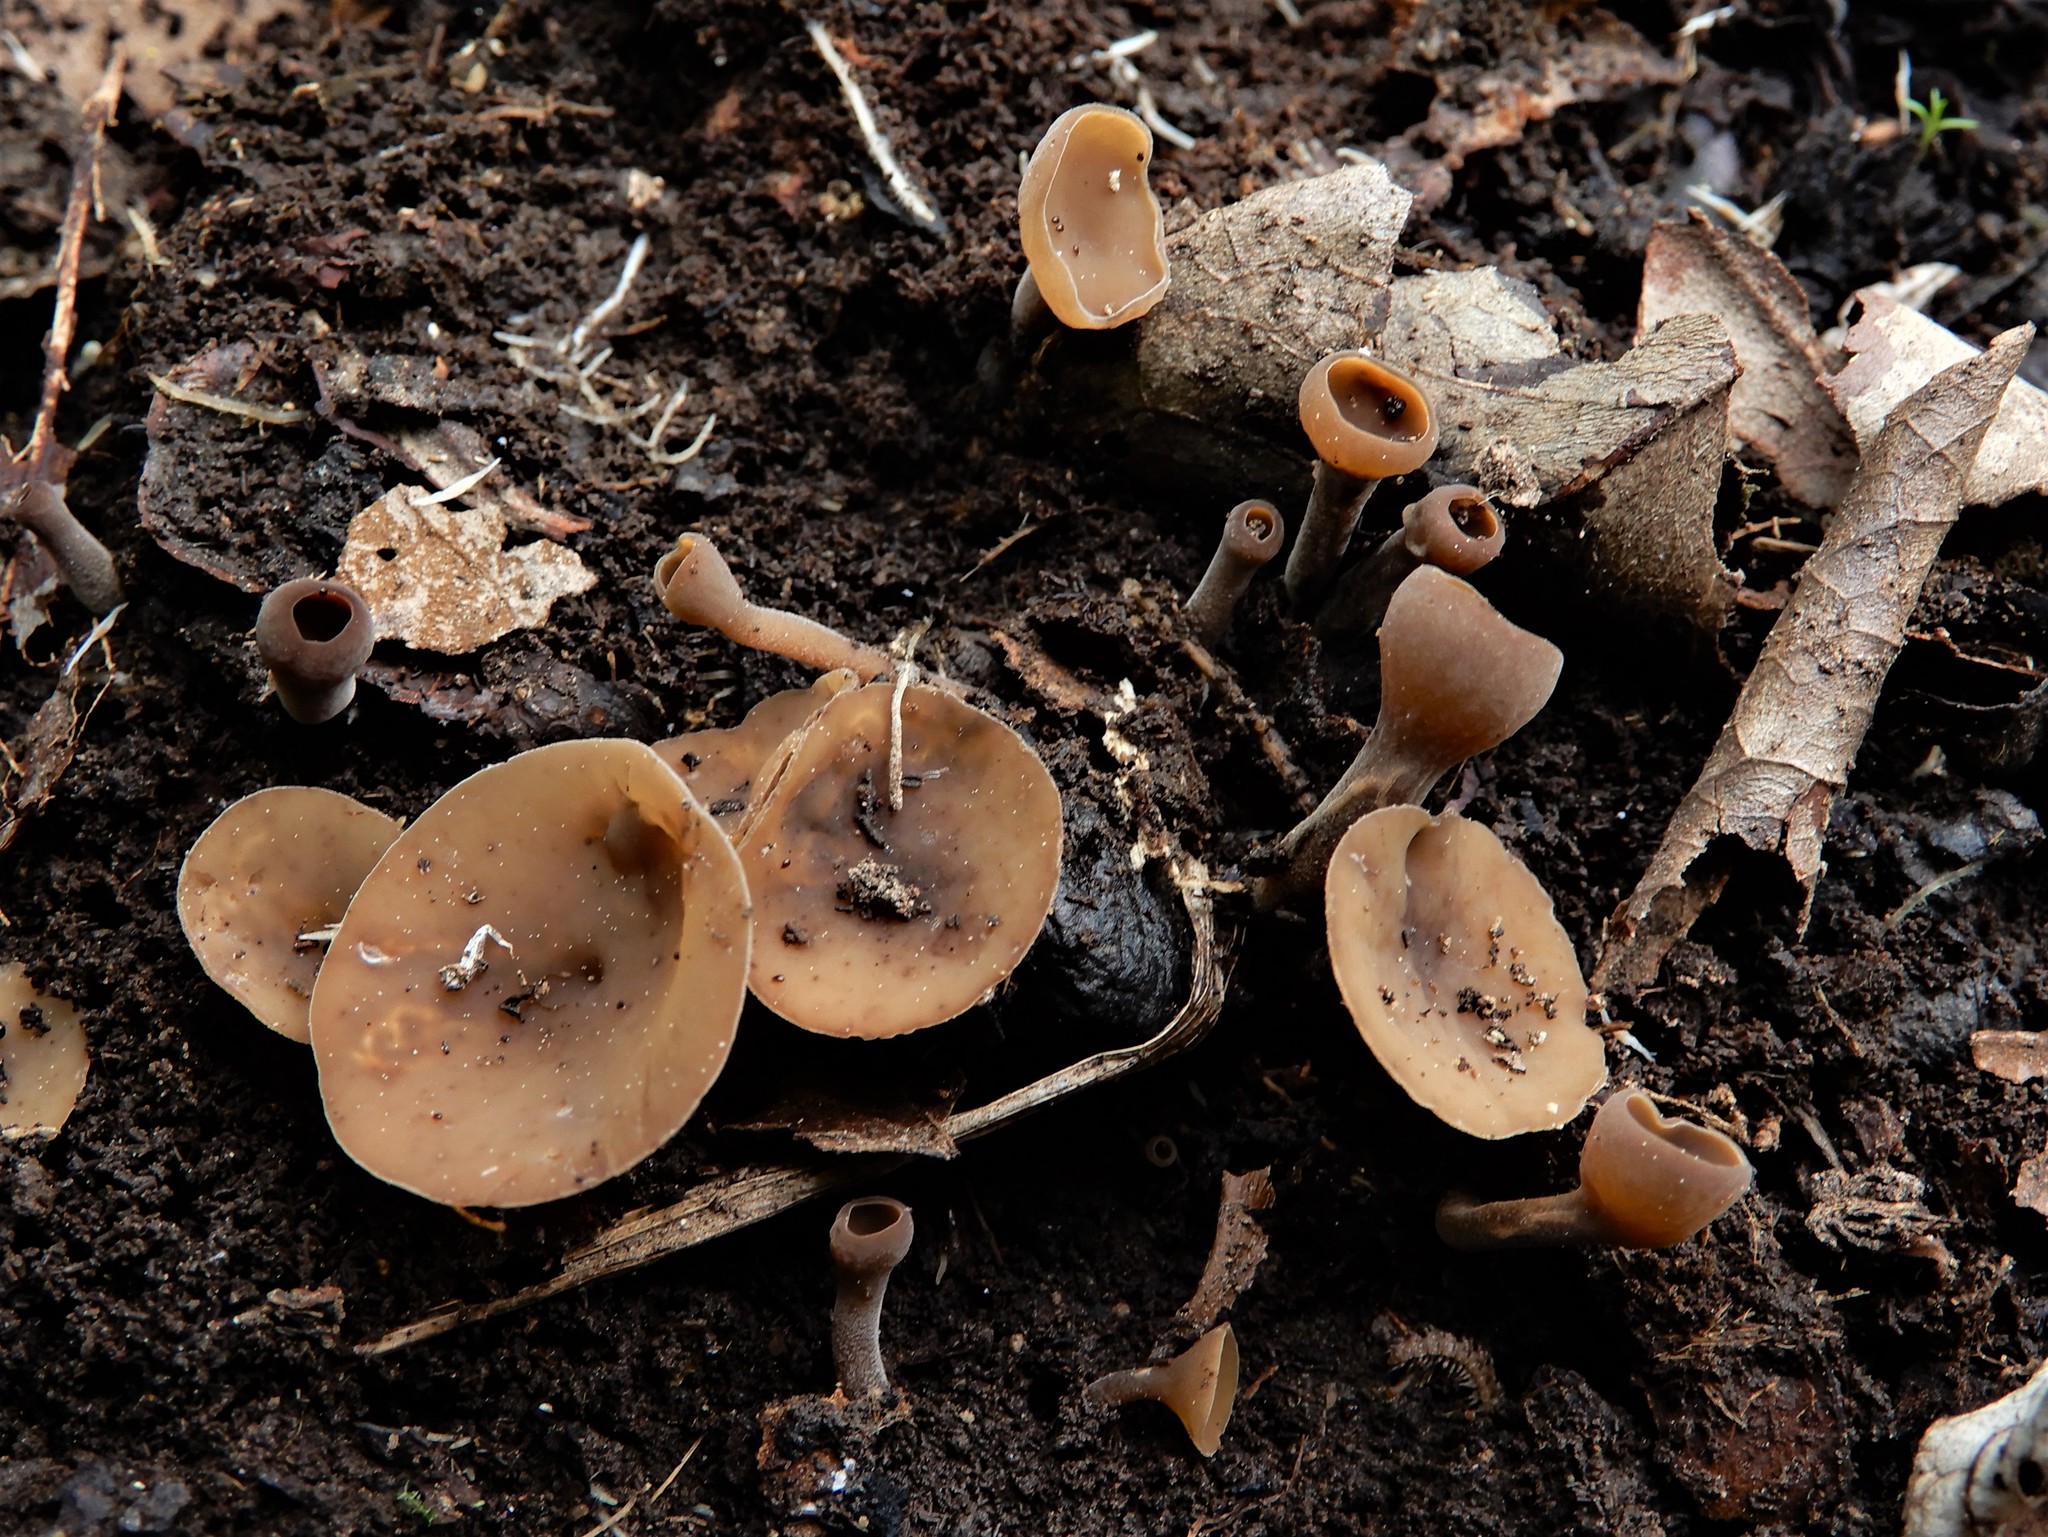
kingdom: Fungi
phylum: Ascomycota
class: Leotiomycetes
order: Helotiales
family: Sclerotiniaceae
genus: Ciborinia
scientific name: Ciborinia camelliae
